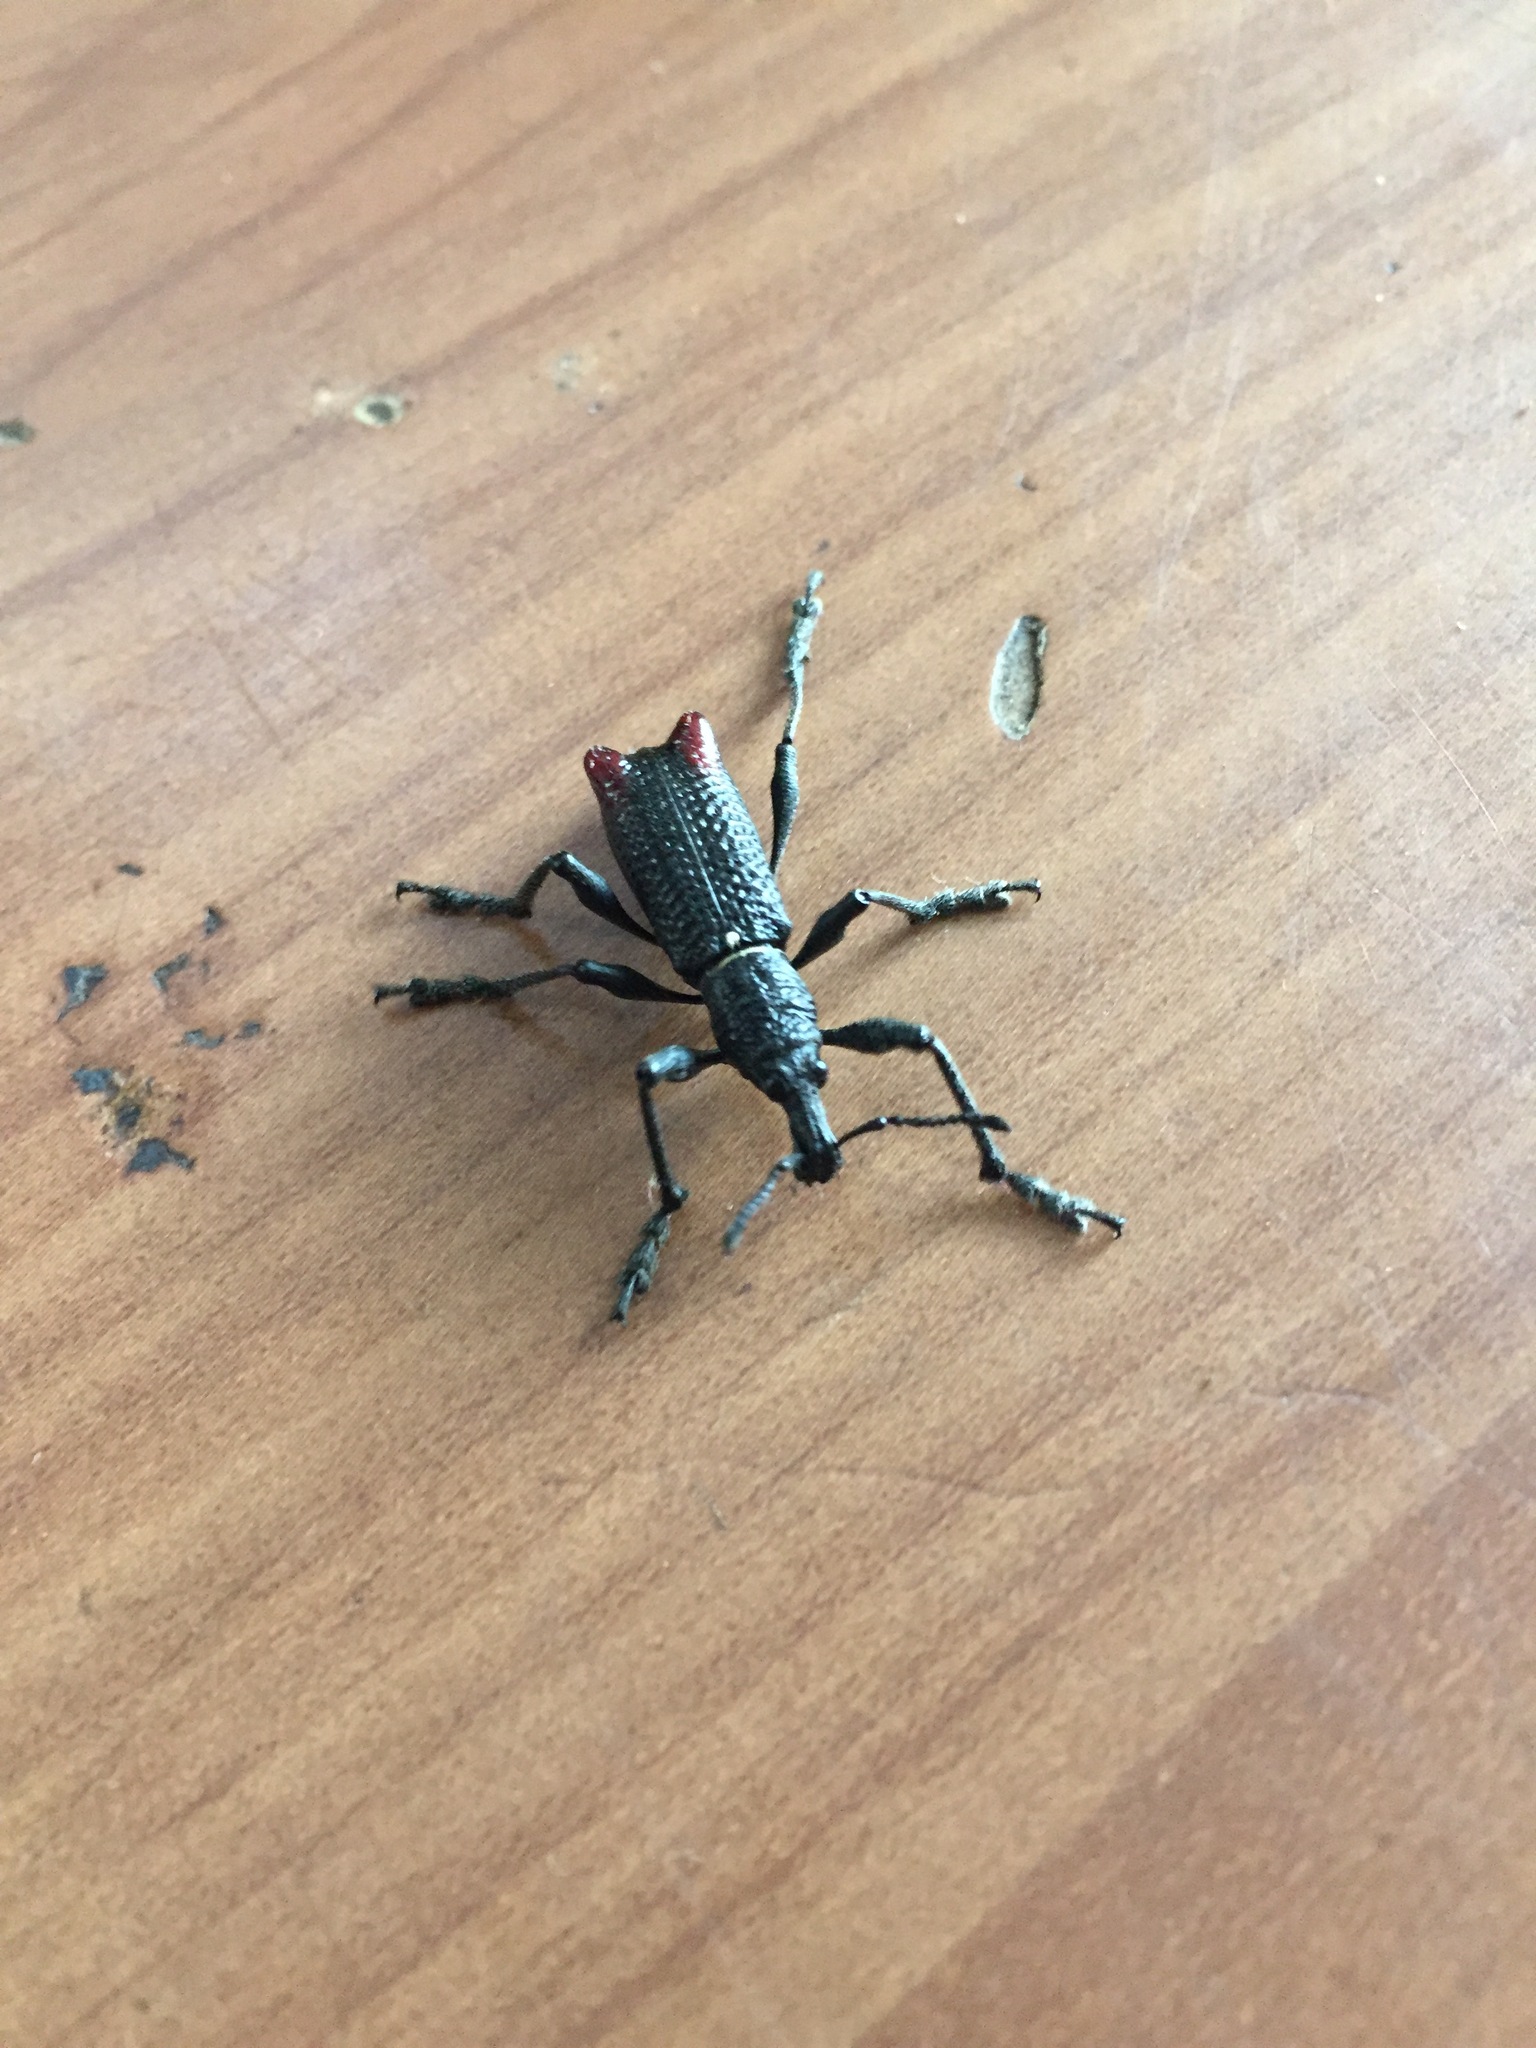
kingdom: Animalia
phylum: Arthropoda
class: Insecta
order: Coleoptera
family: Curculionidae
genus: Alastoropolus
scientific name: Alastoropolus strumosus
